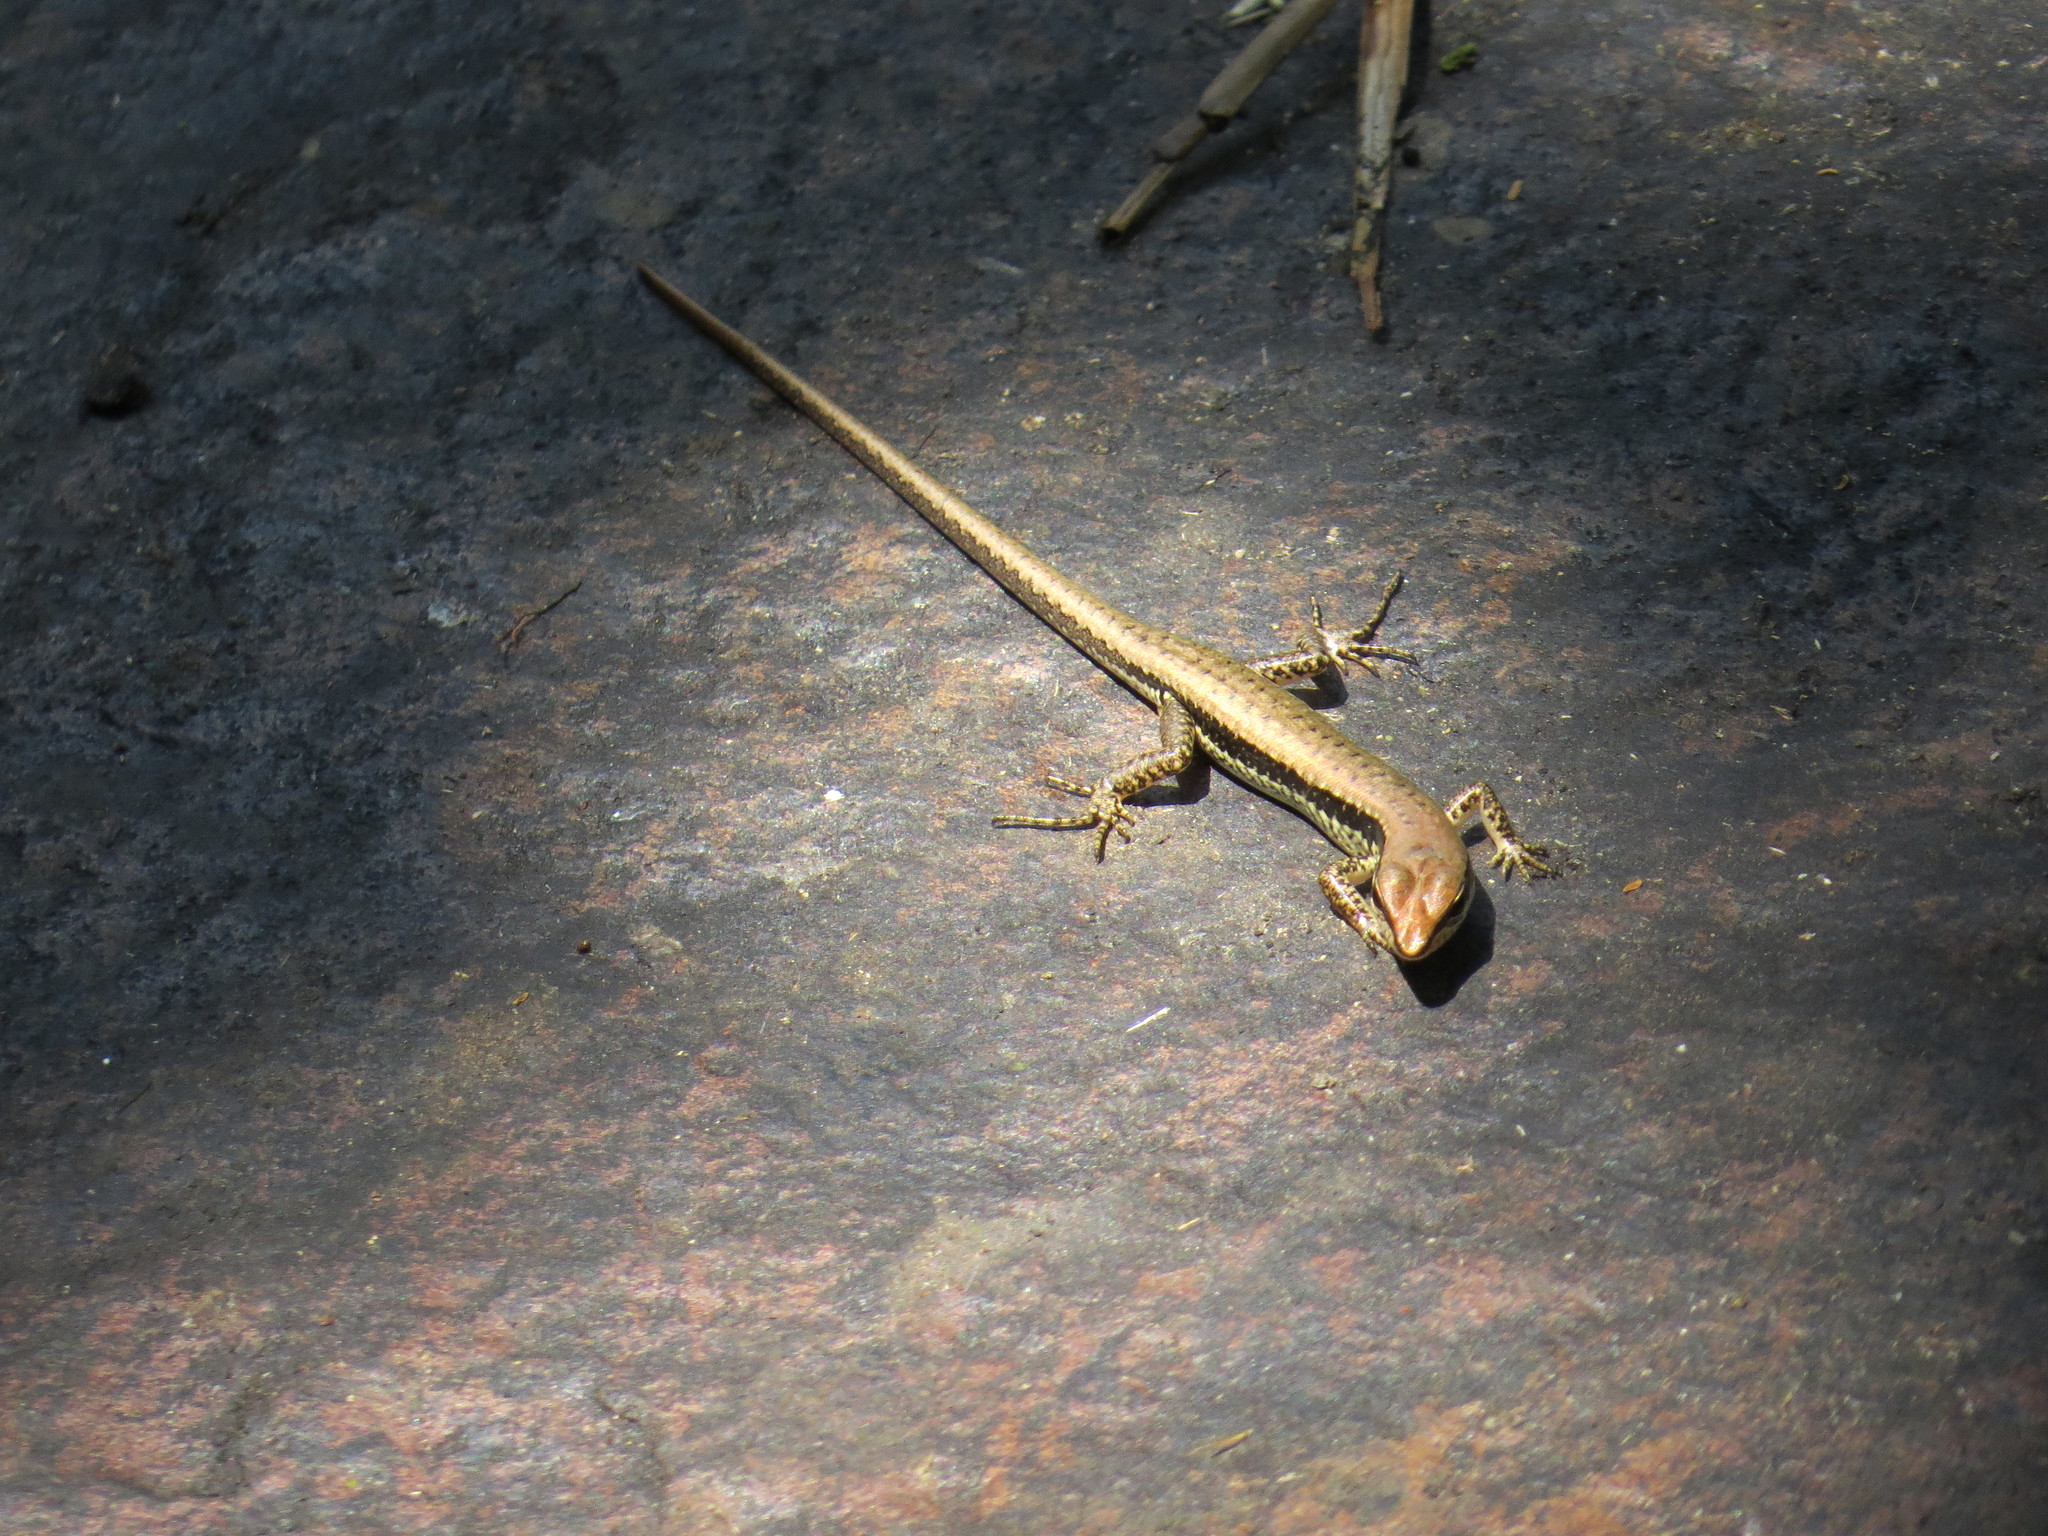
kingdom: Animalia
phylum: Chordata
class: Squamata
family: Scincidae
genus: Sphenomorphus
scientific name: Sphenomorphus maculatus
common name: Maculated forest skink
